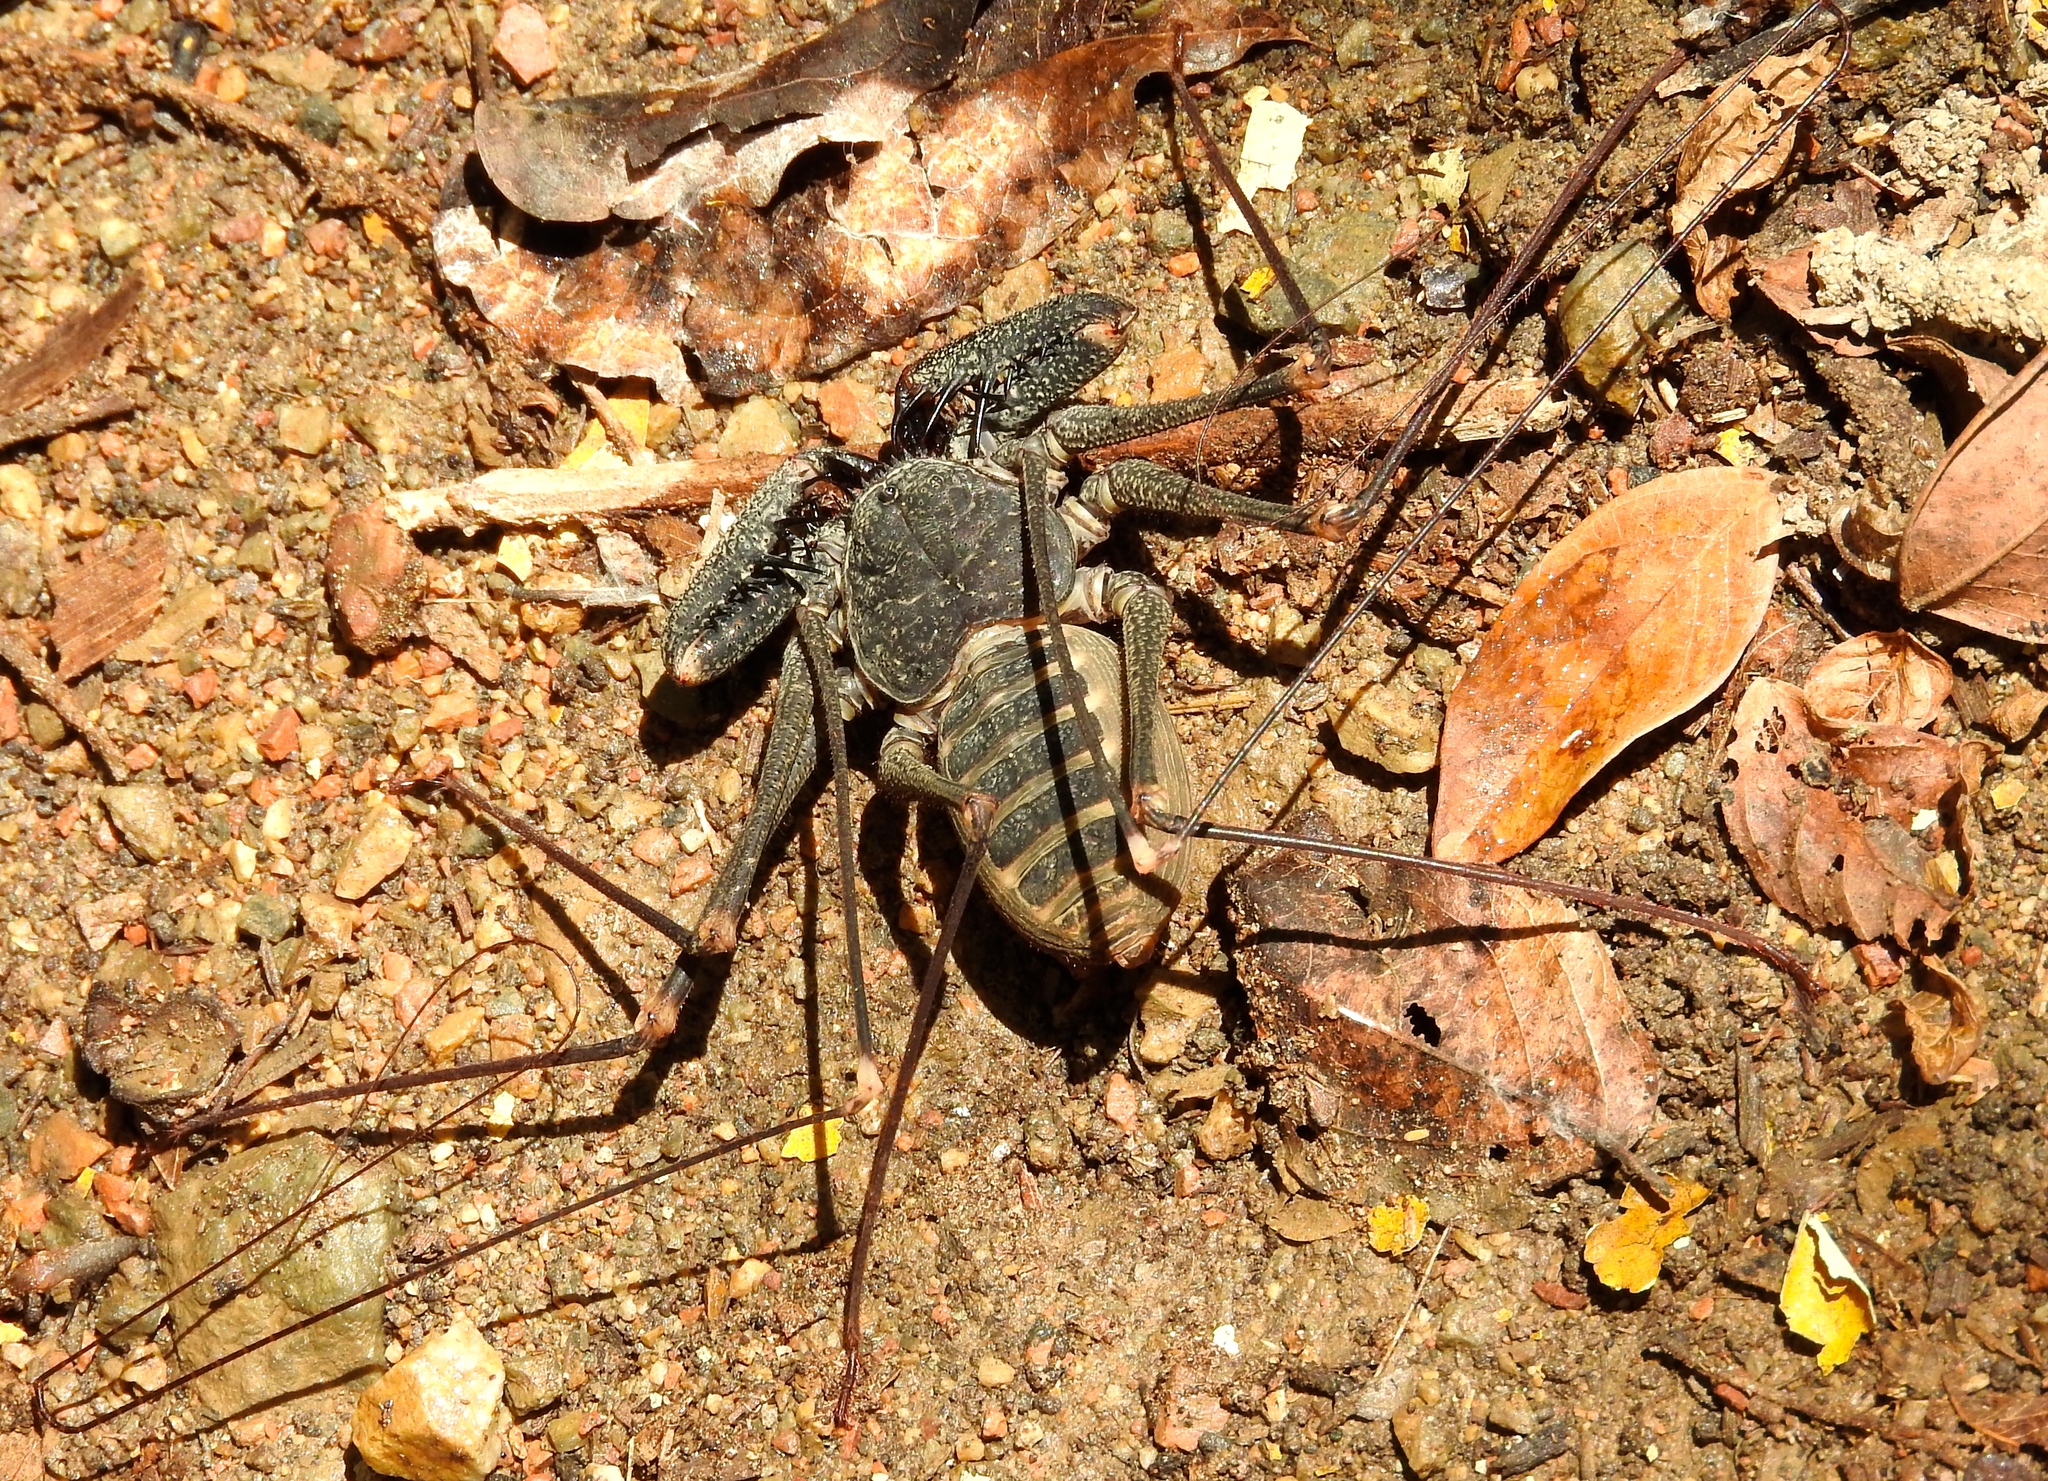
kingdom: Animalia
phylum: Arthropoda
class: Arachnida
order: Amblypygi
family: Phrynidae
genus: Acanthophrynus
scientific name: Acanthophrynus coronatus
